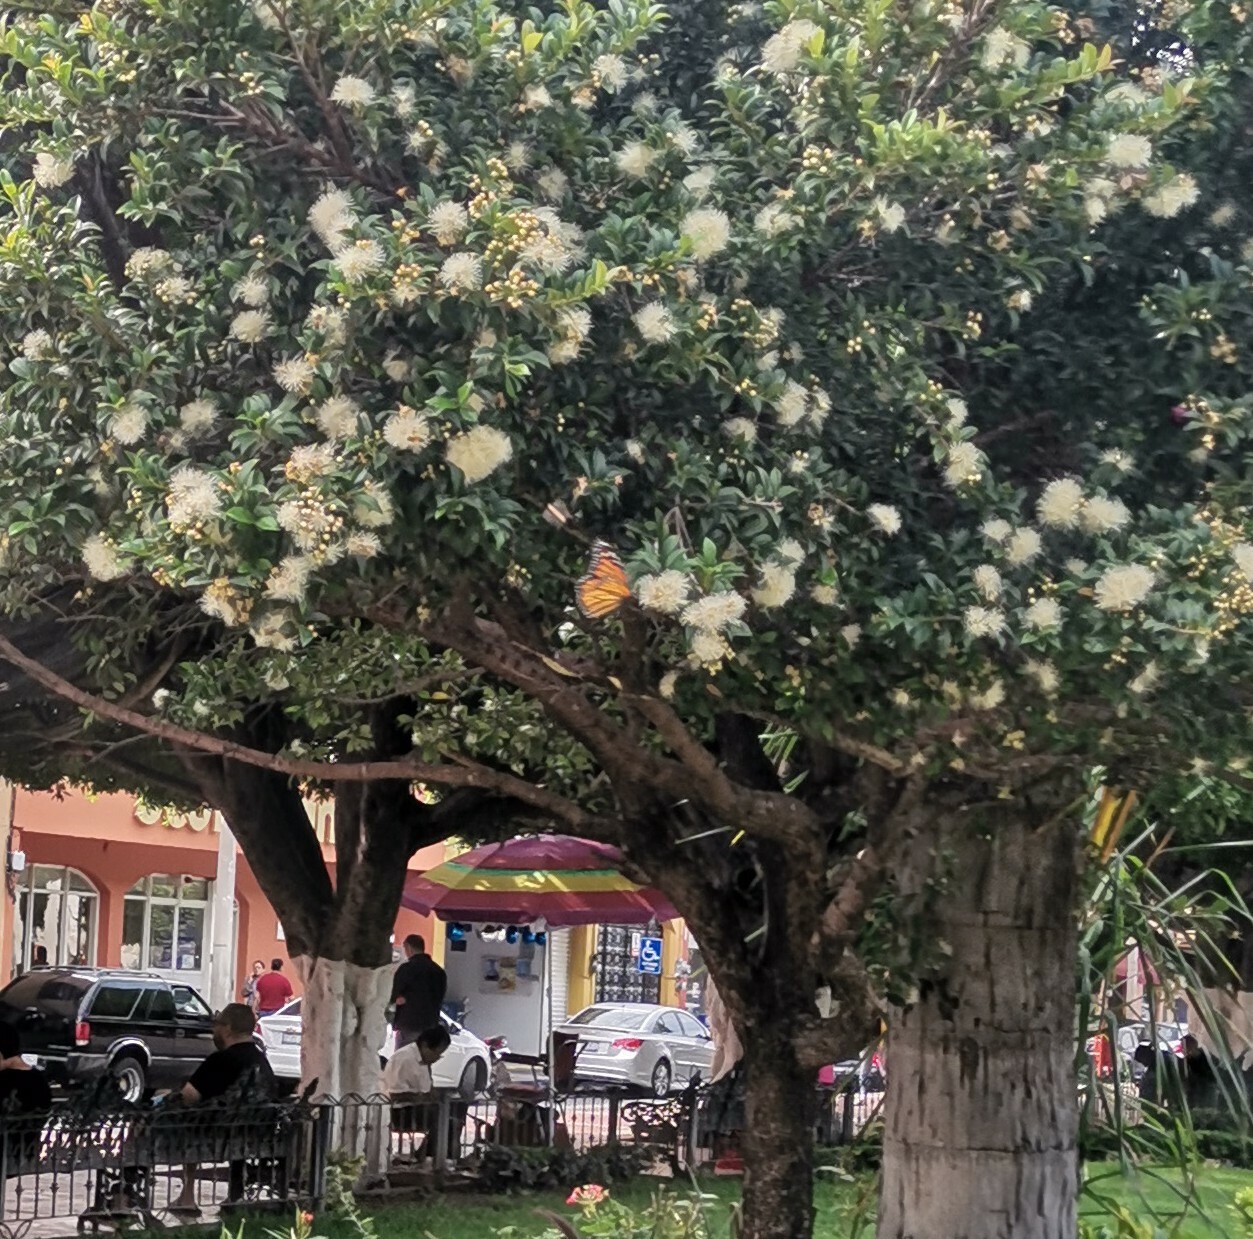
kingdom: Animalia
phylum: Arthropoda
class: Insecta
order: Lepidoptera
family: Nymphalidae
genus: Danaus
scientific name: Danaus plexippus
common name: Monarch
